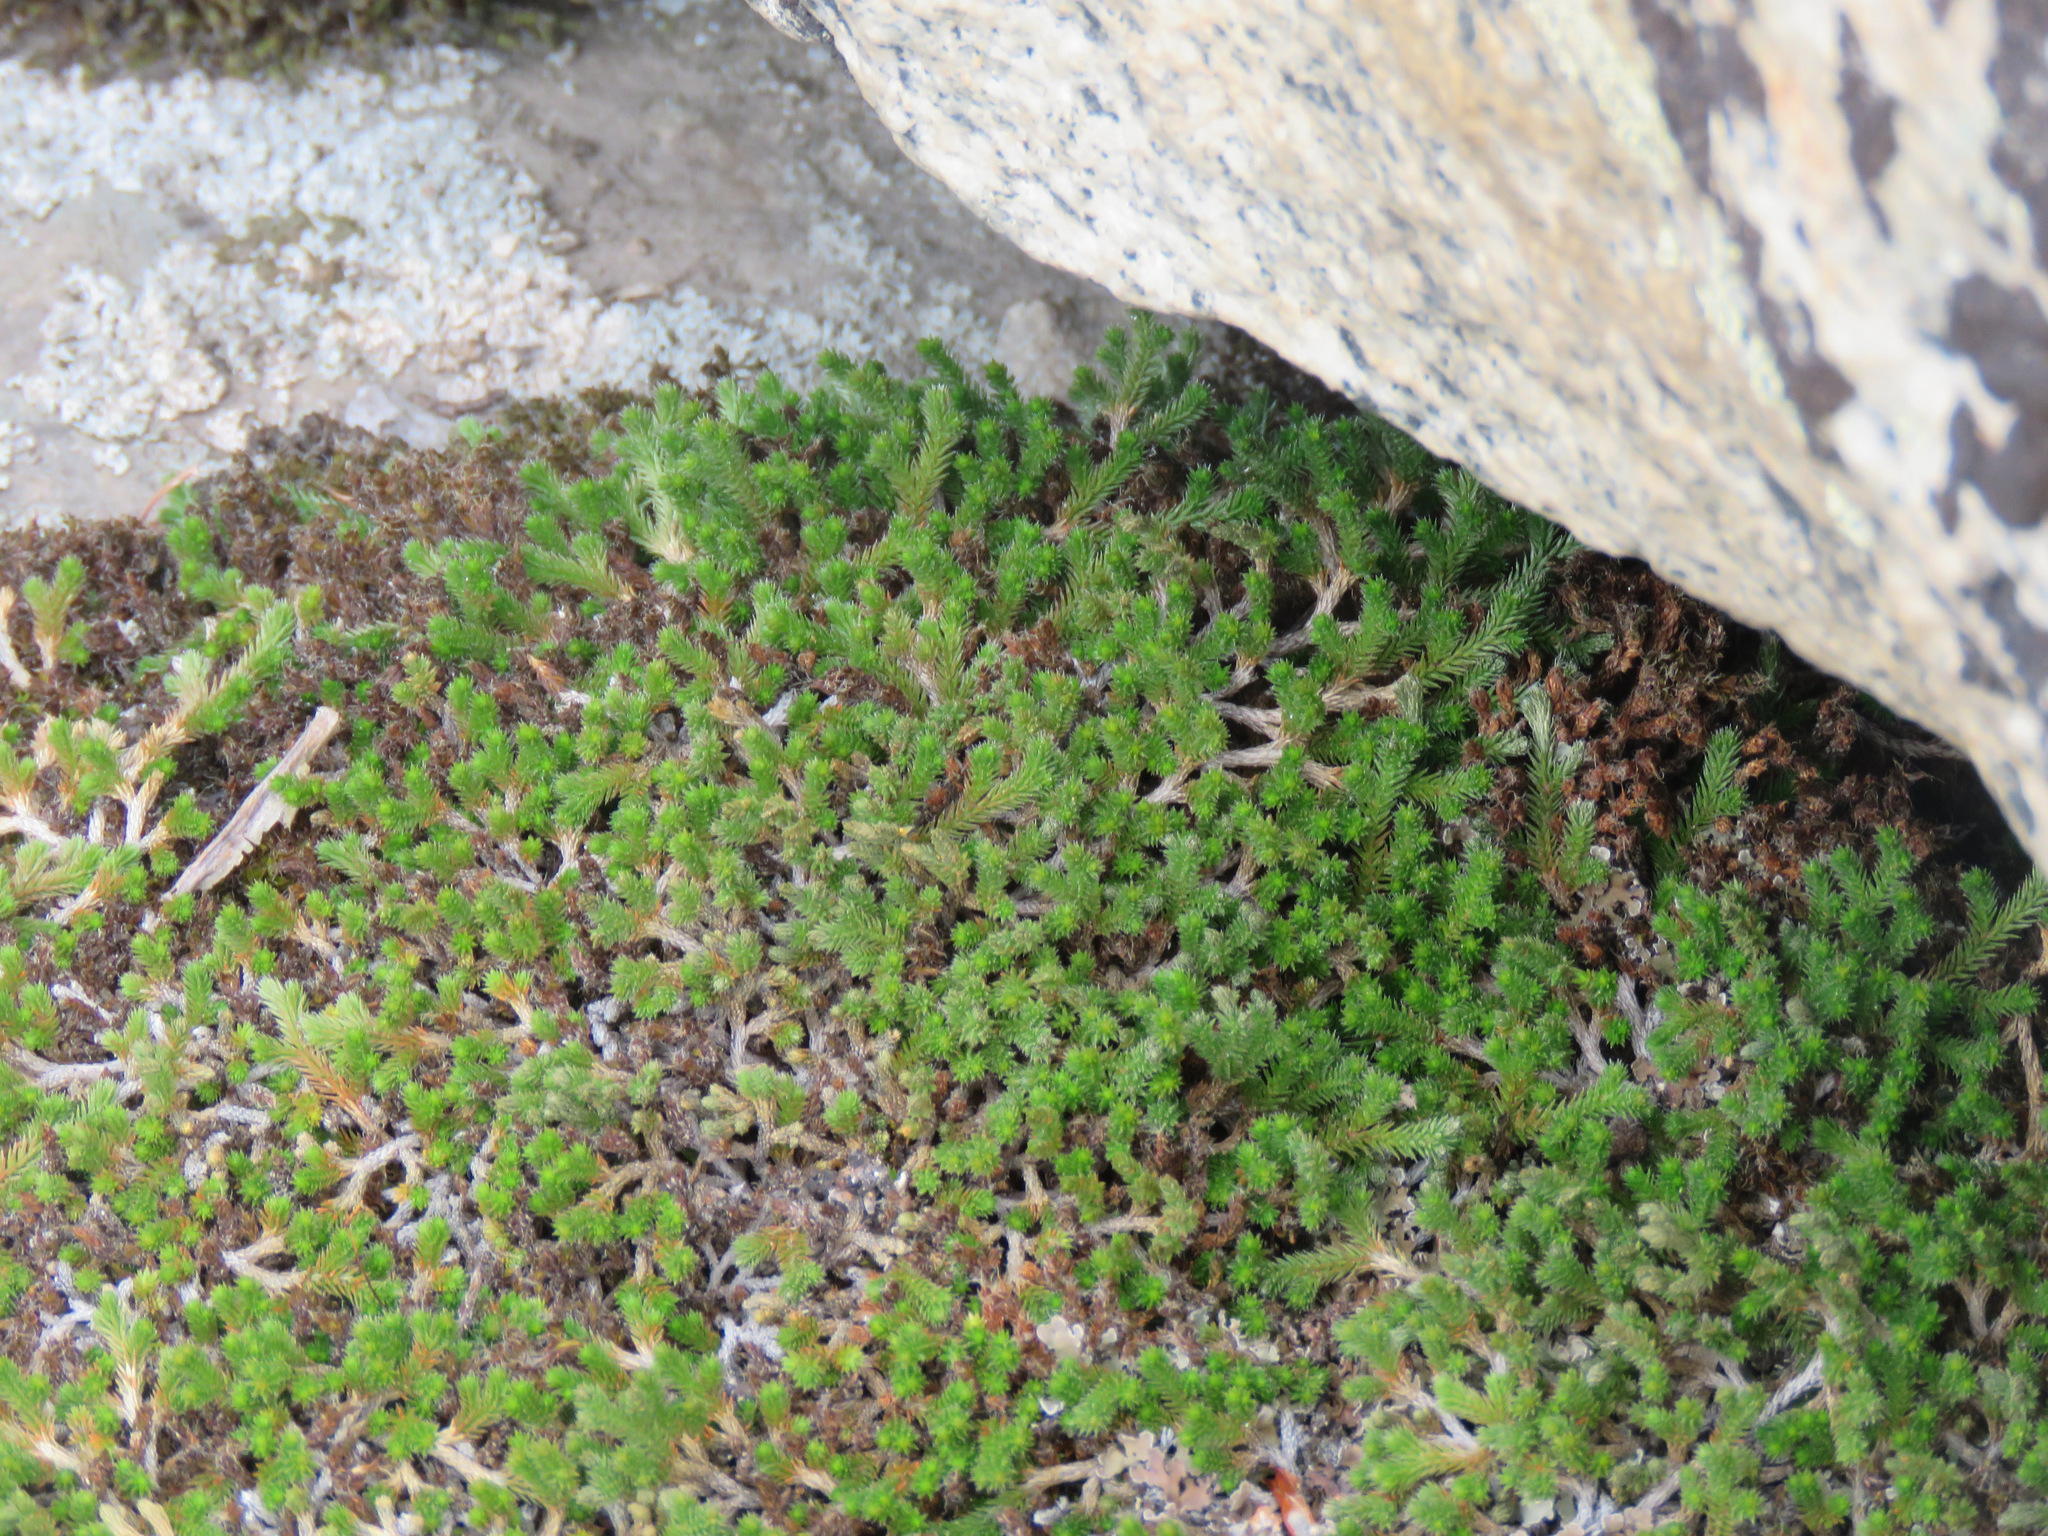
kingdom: Plantae
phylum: Tracheophyta
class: Lycopodiopsida
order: Selaginellales
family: Selaginellaceae
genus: Selaginella
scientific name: Selaginella wallacei
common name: Wallace's selaginella
